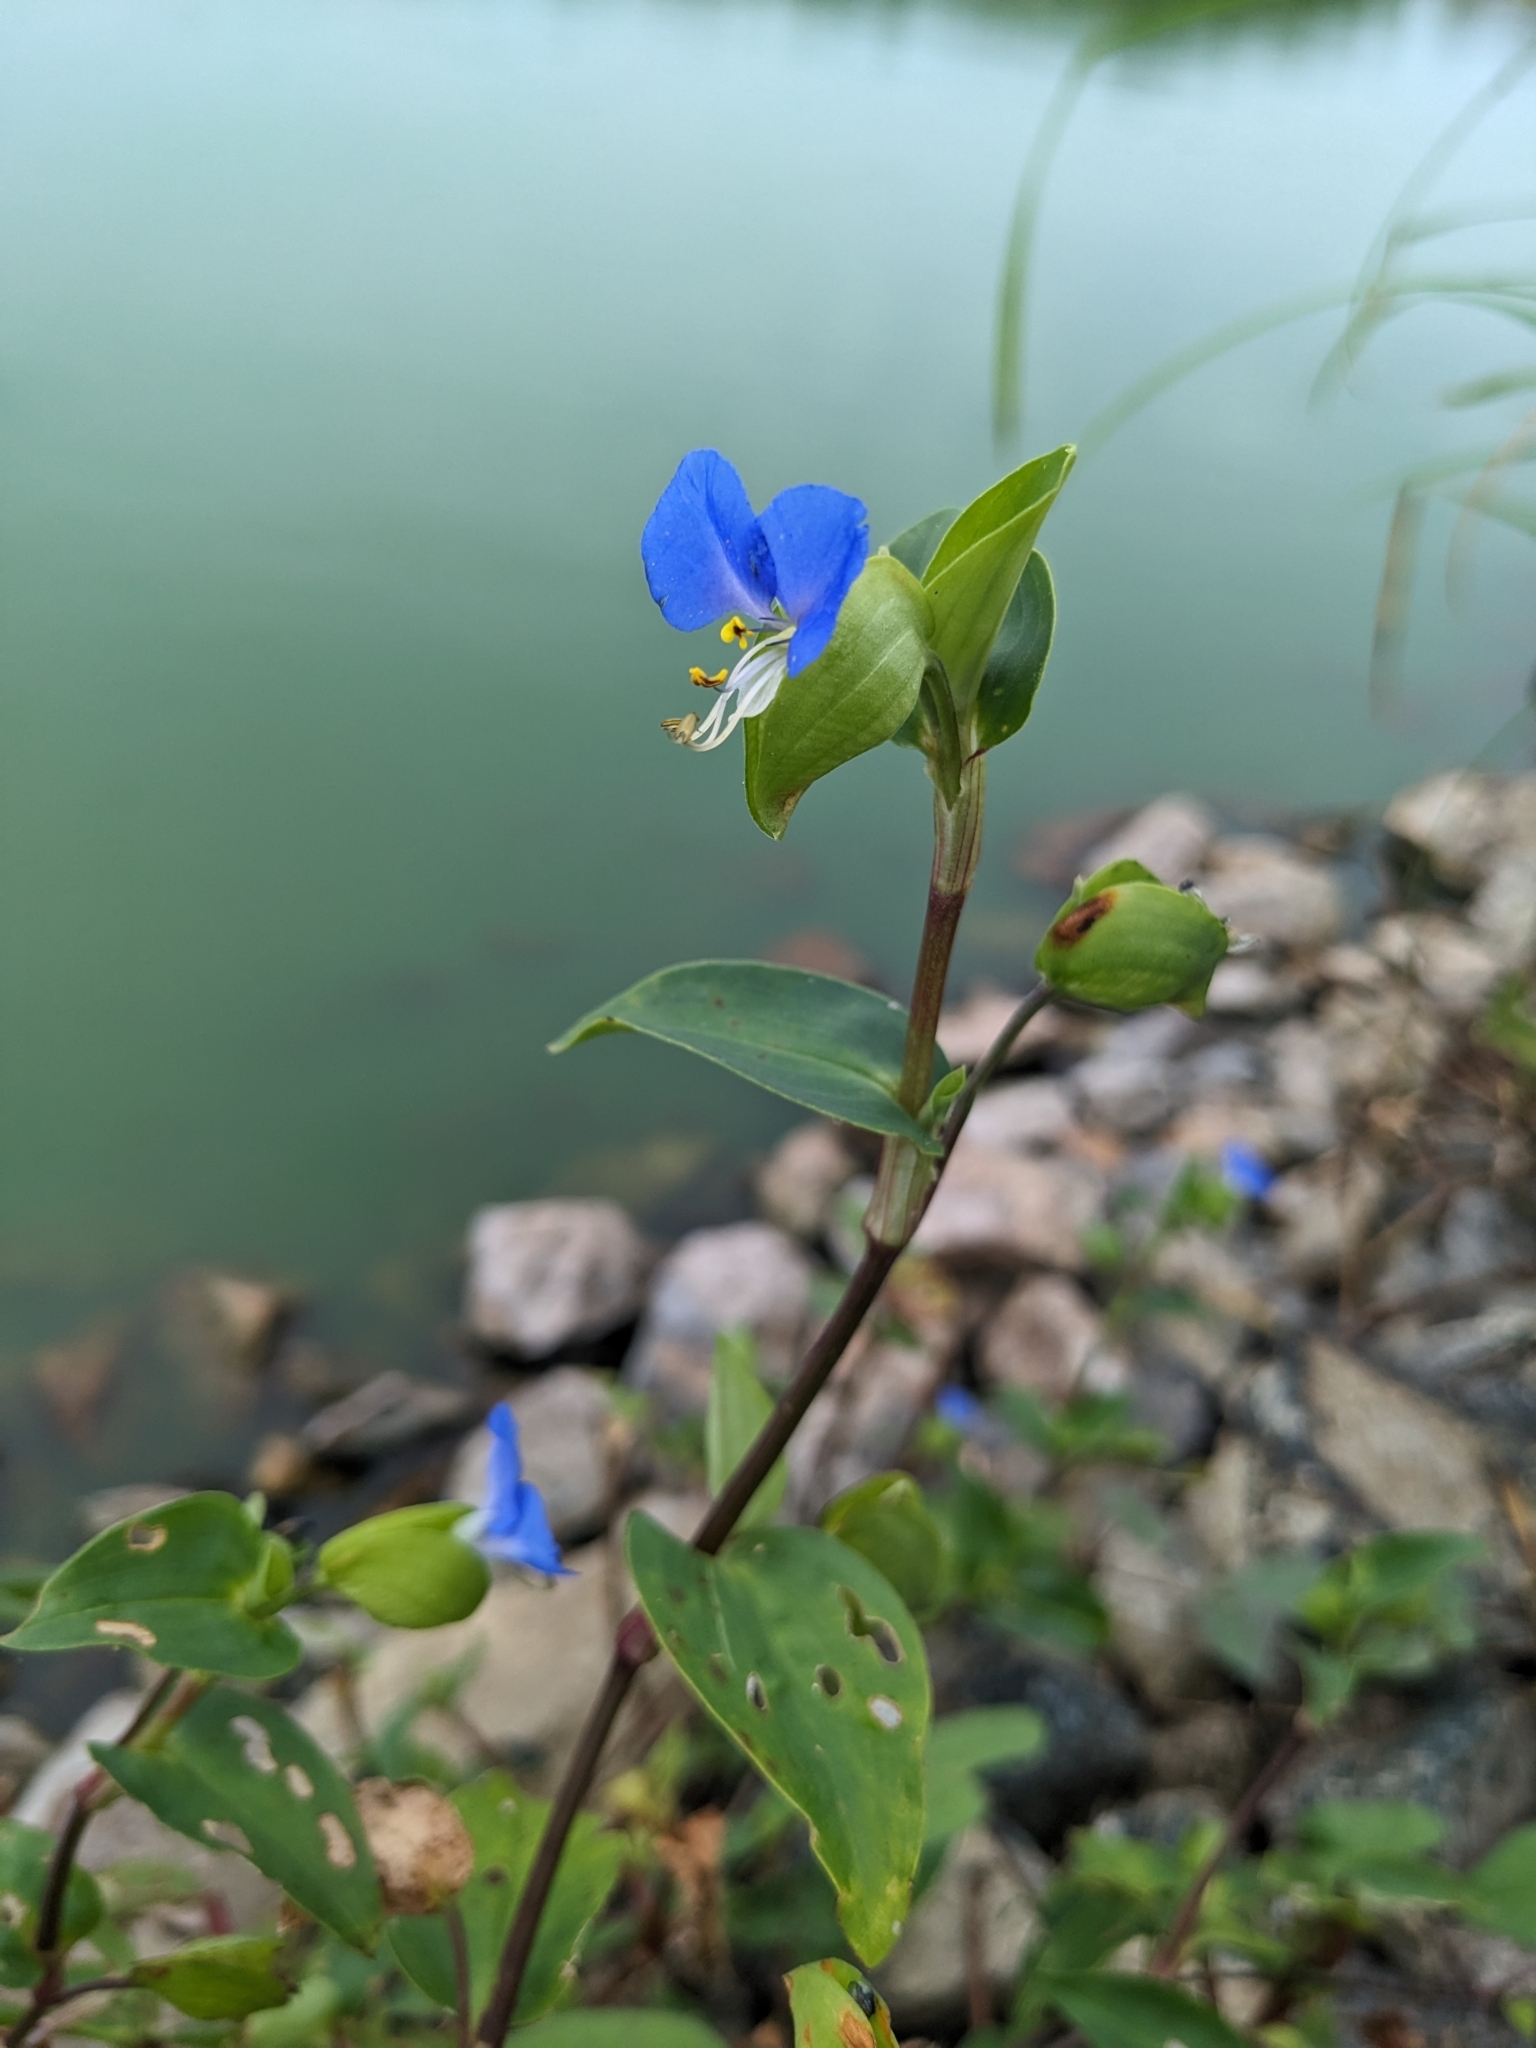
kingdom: Plantae
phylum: Tracheophyta
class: Liliopsida
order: Commelinales
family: Commelinaceae
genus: Commelina
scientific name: Commelina communis
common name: Asiatic dayflower
